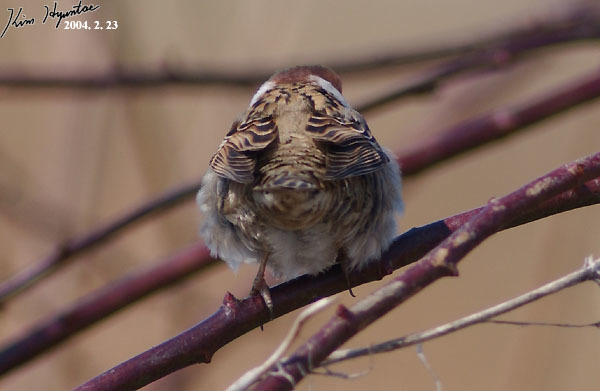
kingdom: Animalia
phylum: Chordata
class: Aves
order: Passeriformes
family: Passeridae
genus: Passer
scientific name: Passer montanus
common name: Eurasian tree sparrow
